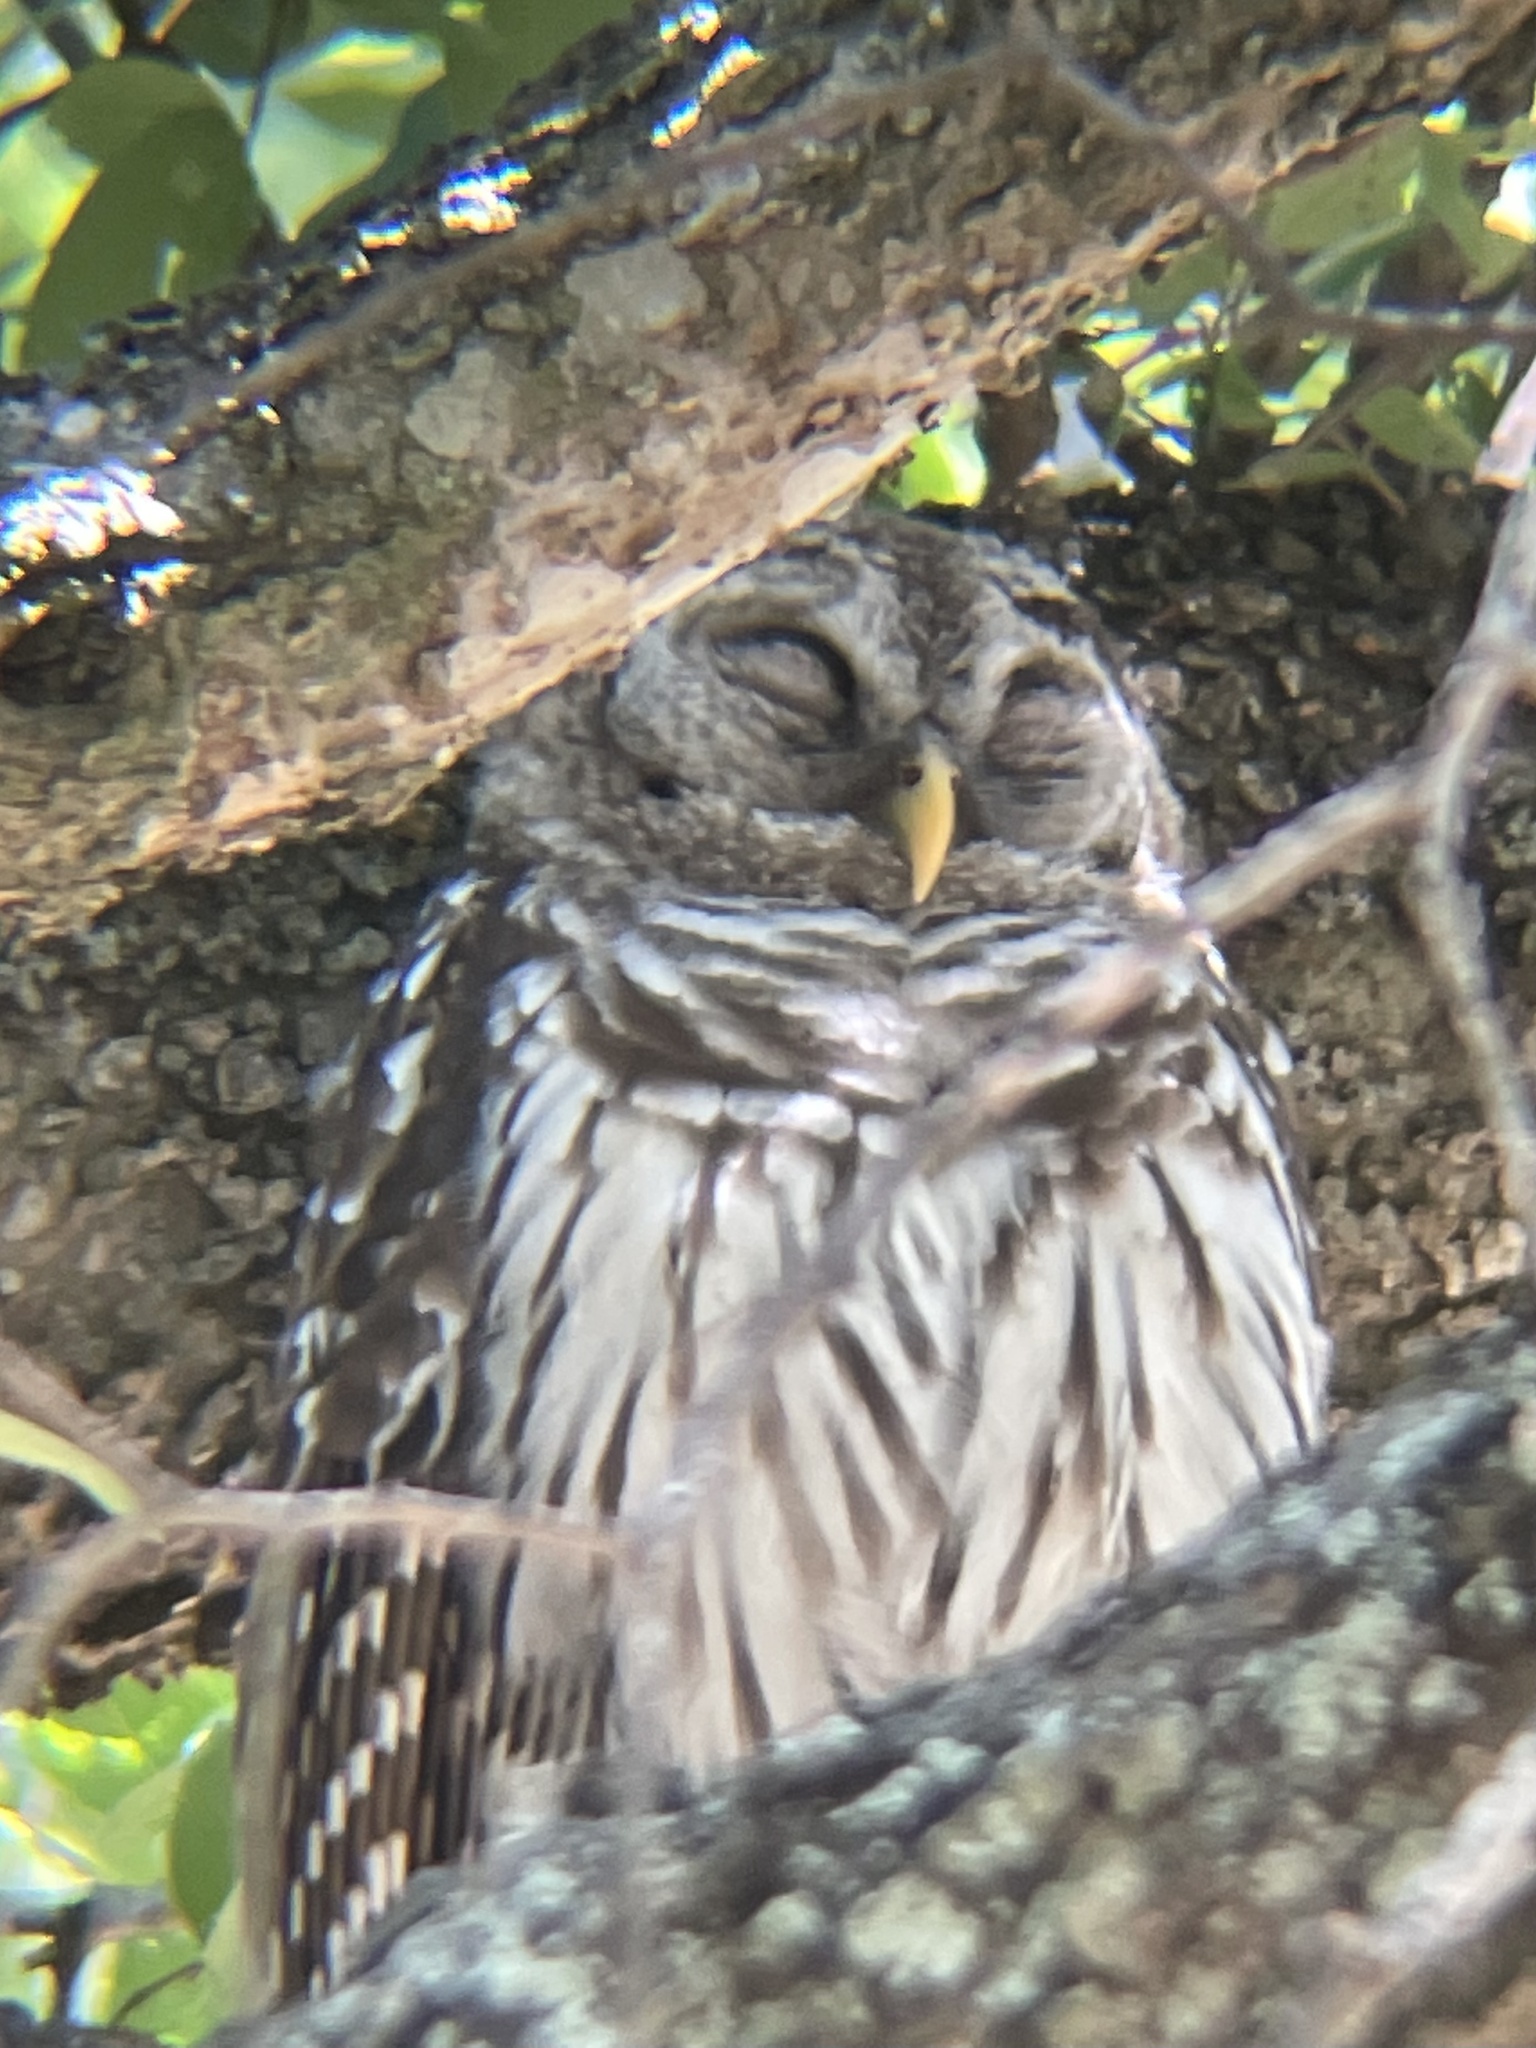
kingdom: Animalia
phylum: Chordata
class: Aves
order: Strigiformes
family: Strigidae
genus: Strix
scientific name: Strix varia
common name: Barred owl
